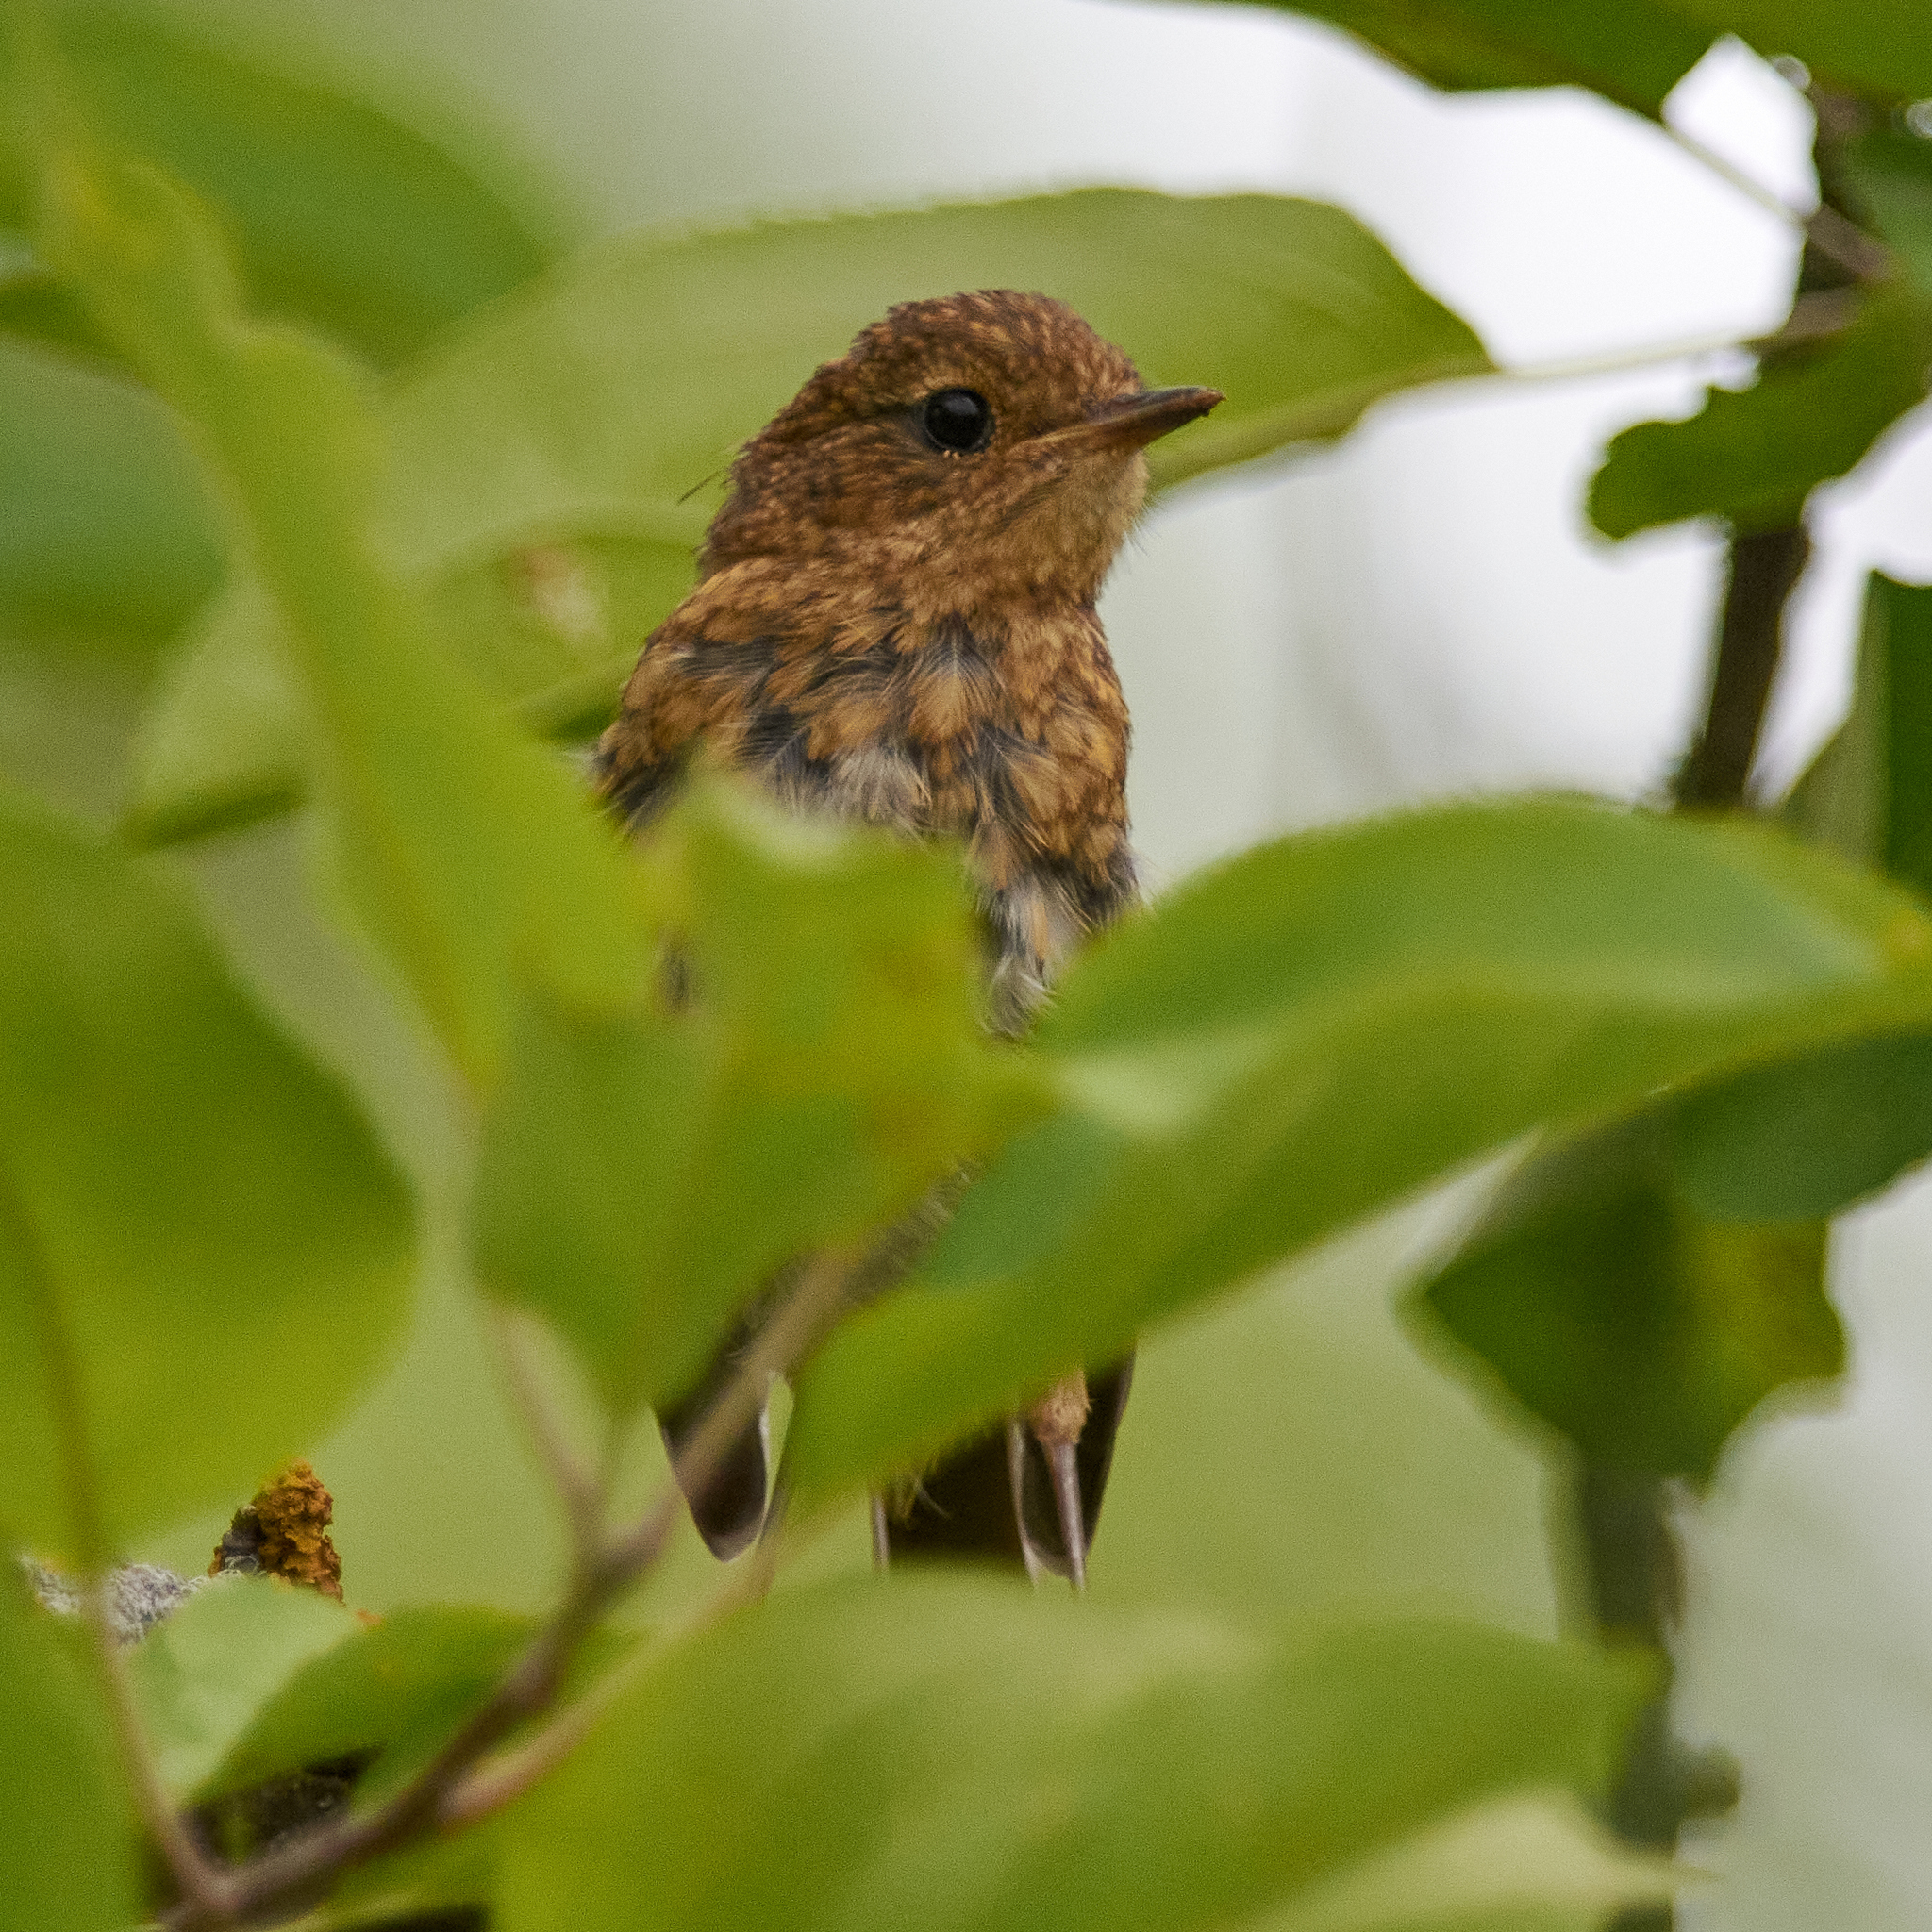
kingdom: Animalia
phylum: Chordata
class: Aves
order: Passeriformes
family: Muscicapidae
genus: Erithacus
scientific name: Erithacus rubecula
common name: European robin
